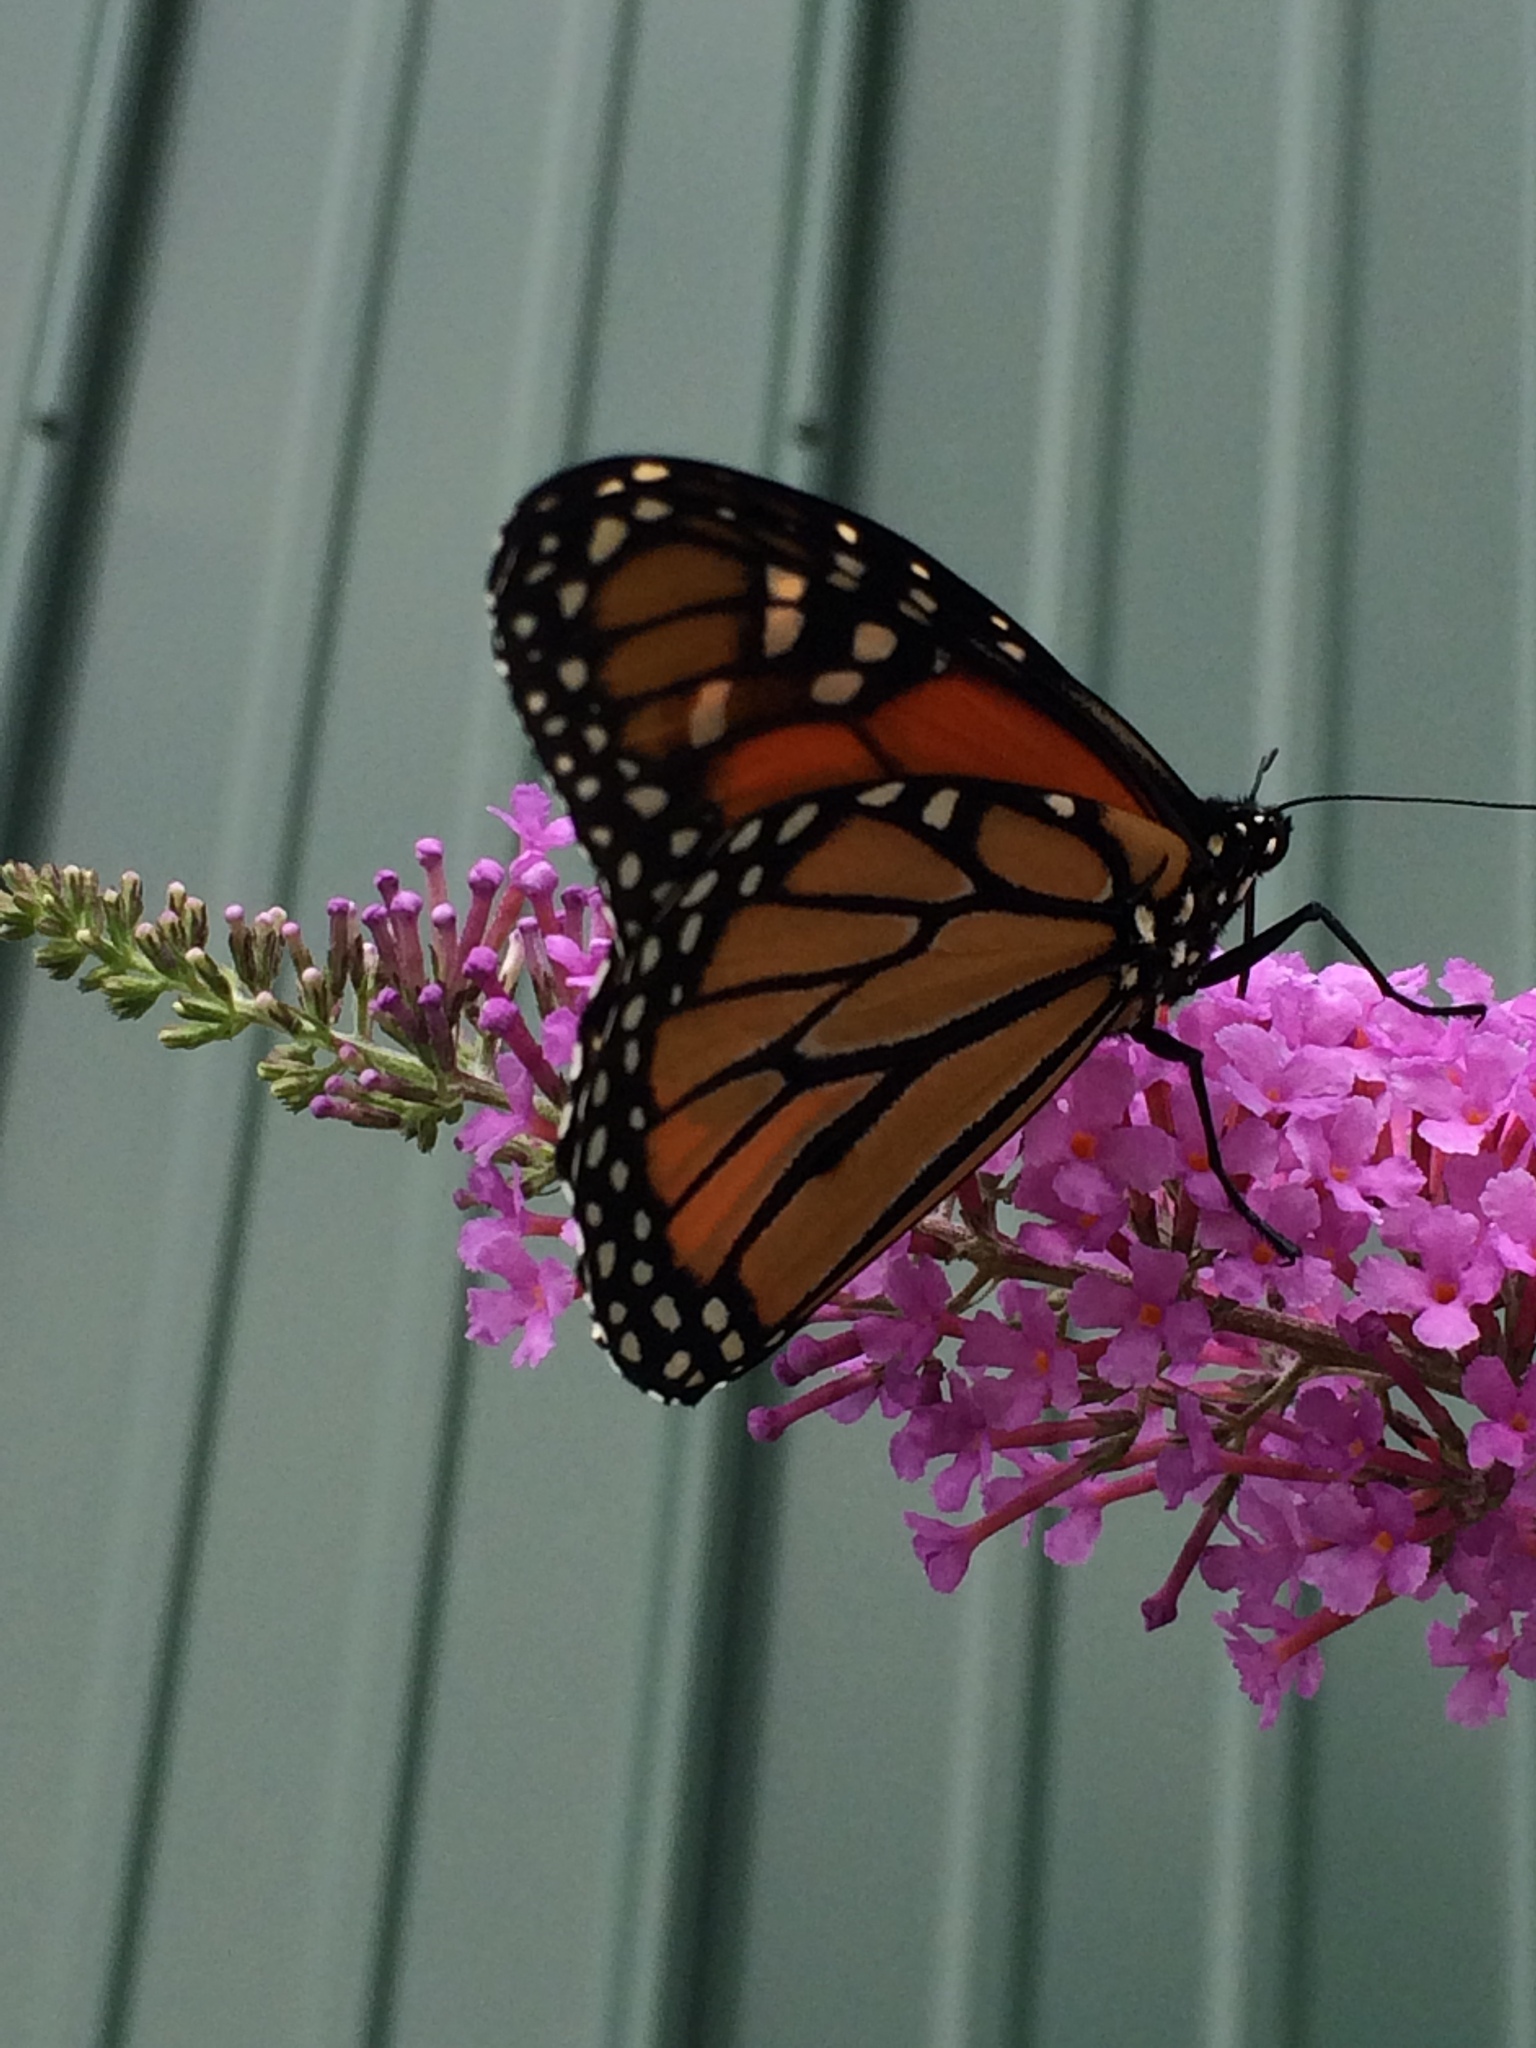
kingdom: Animalia
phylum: Arthropoda
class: Insecta
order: Lepidoptera
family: Nymphalidae
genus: Danaus
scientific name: Danaus plexippus
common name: Monarch
